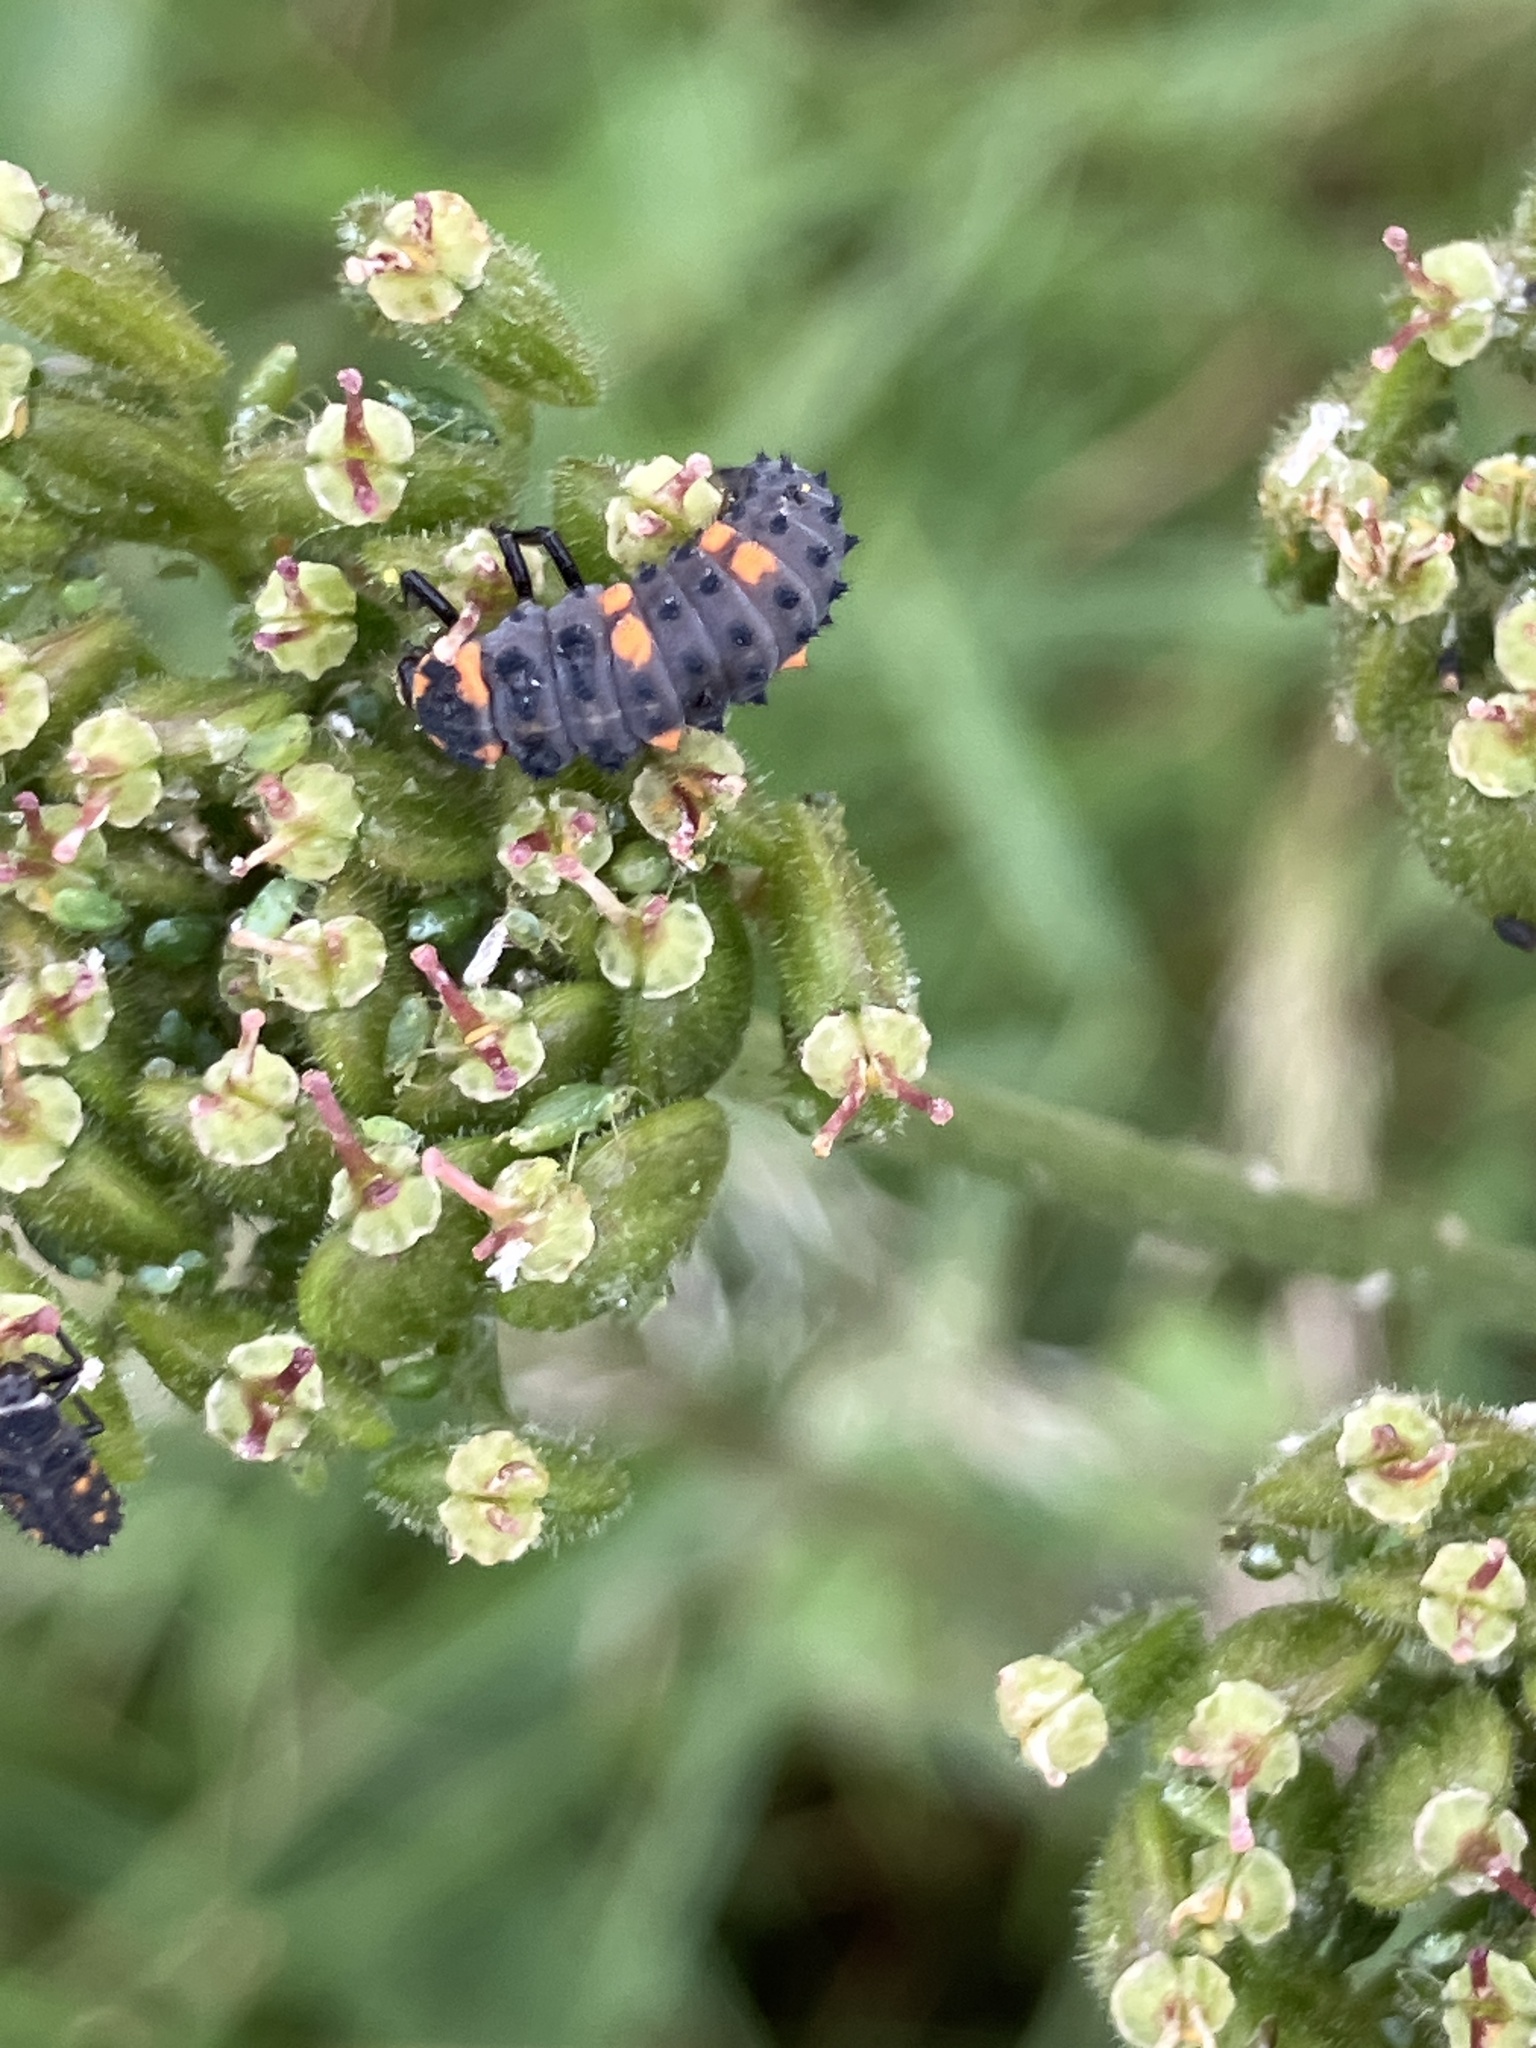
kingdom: Animalia
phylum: Arthropoda
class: Insecta
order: Coleoptera
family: Coccinellidae
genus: Coccinella
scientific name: Coccinella septempunctata
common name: Sevenspotted lady beetle
